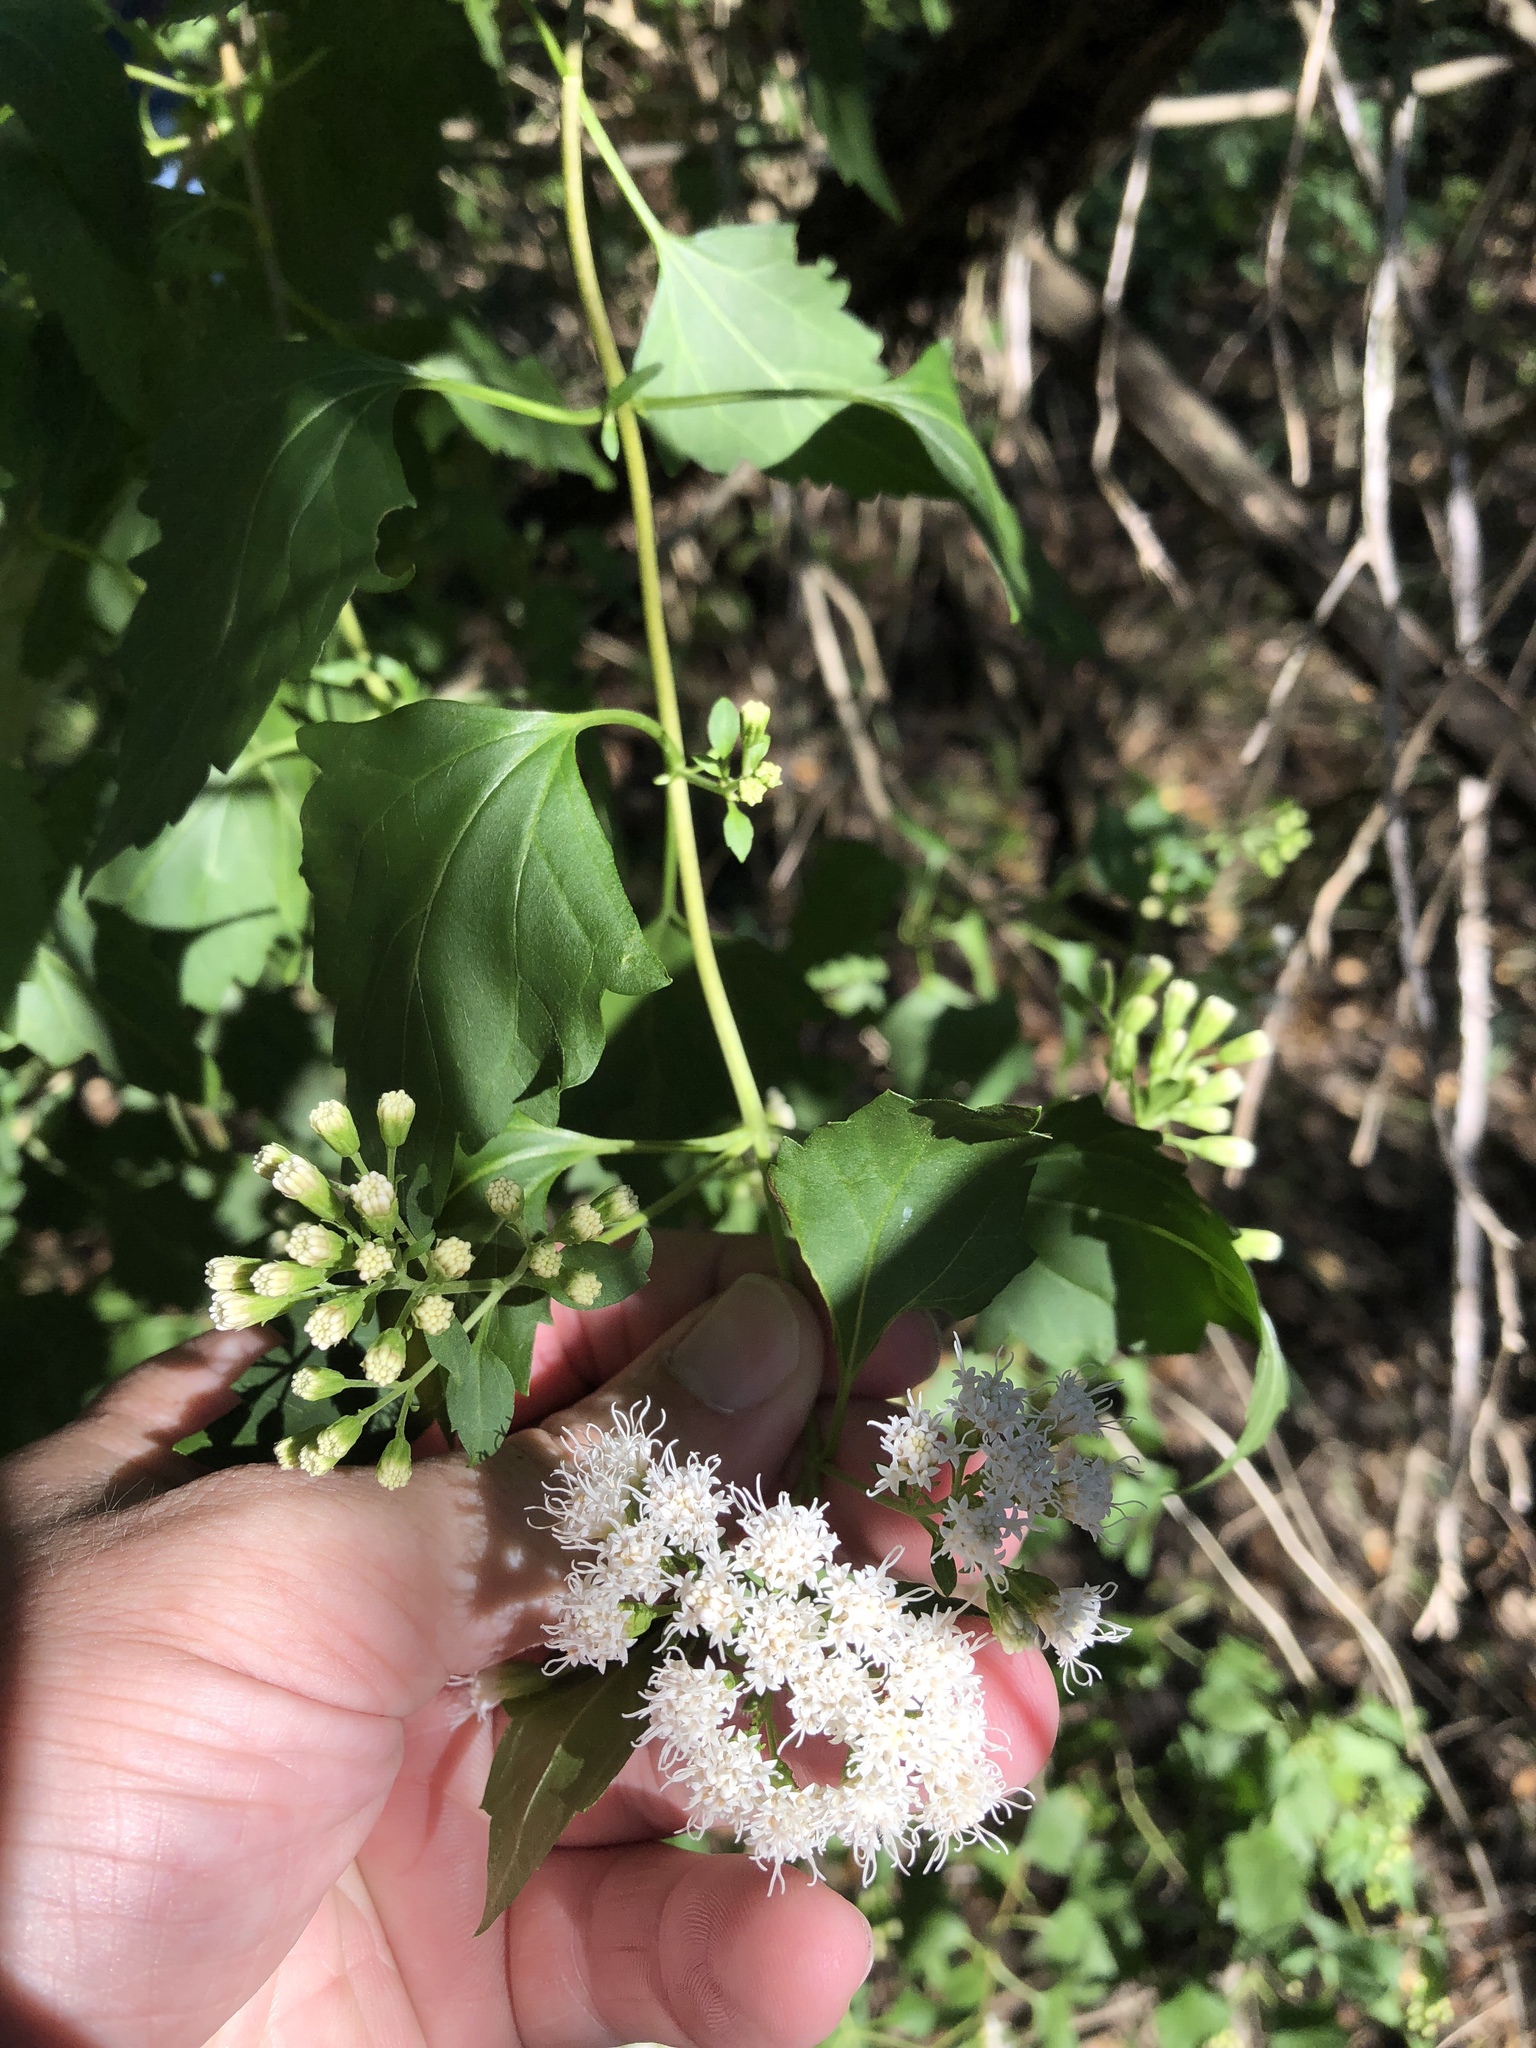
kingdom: Plantae
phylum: Tracheophyta
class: Magnoliopsida
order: Asterales
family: Asteraceae
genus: Ageratina
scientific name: Ageratina havanensis
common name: Havana snakeroot
